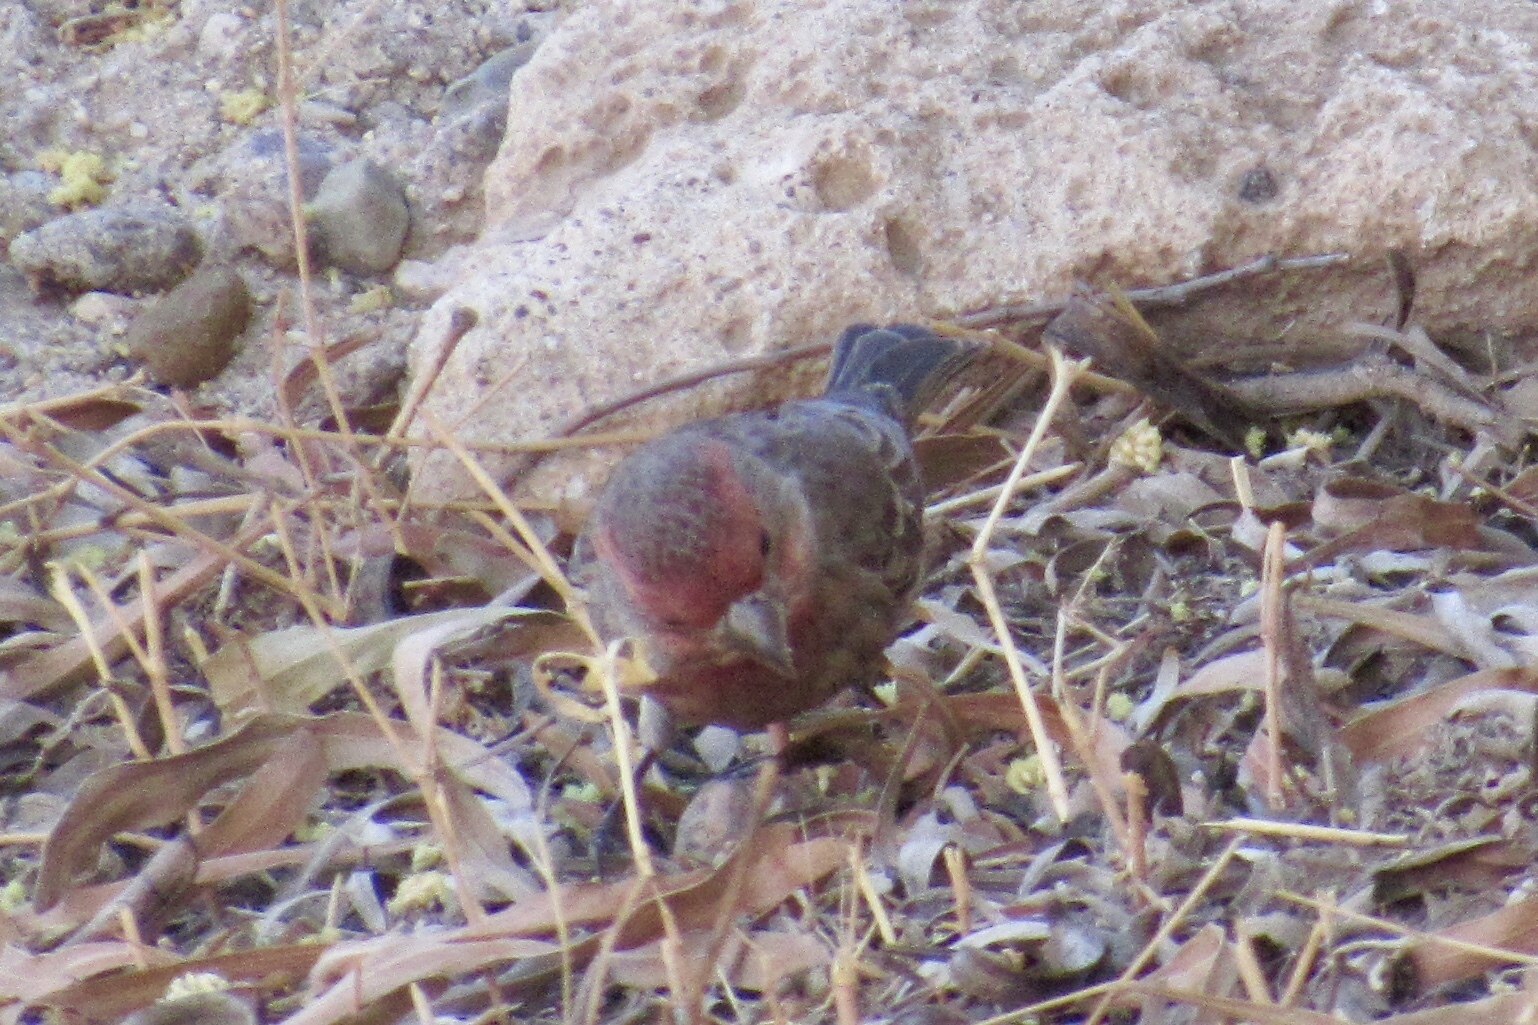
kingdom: Animalia
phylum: Chordata
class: Aves
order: Passeriformes
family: Fringillidae
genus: Haemorhous
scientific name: Haemorhous mexicanus
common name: House finch
